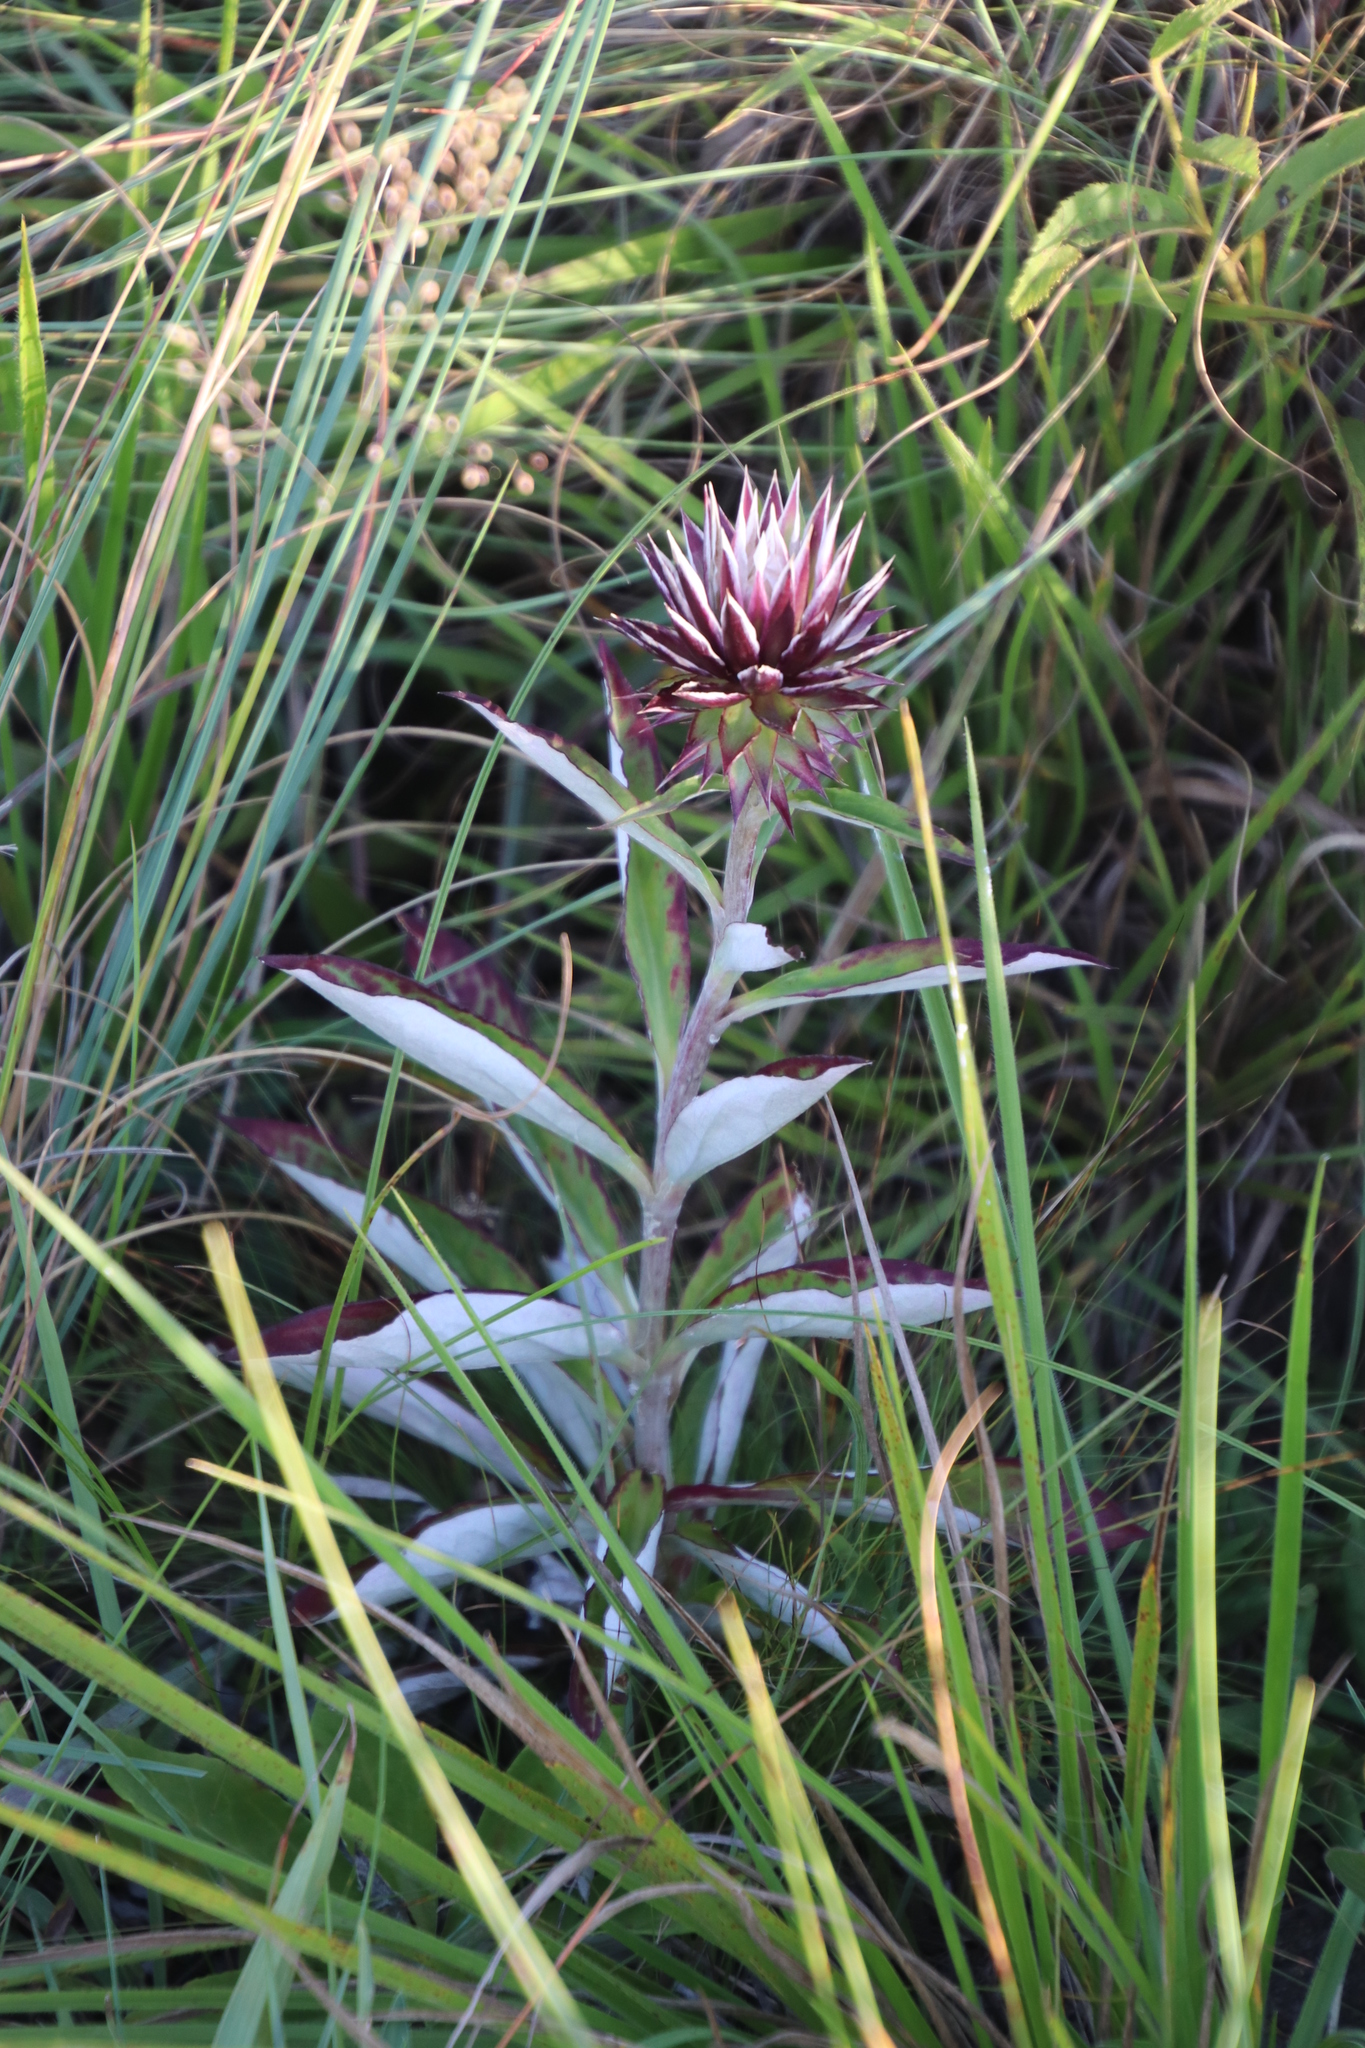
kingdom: Plantae
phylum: Tracheophyta
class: Magnoliopsida
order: Asterales
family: Asteraceae
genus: Macledium
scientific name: Macledium zeyheri
